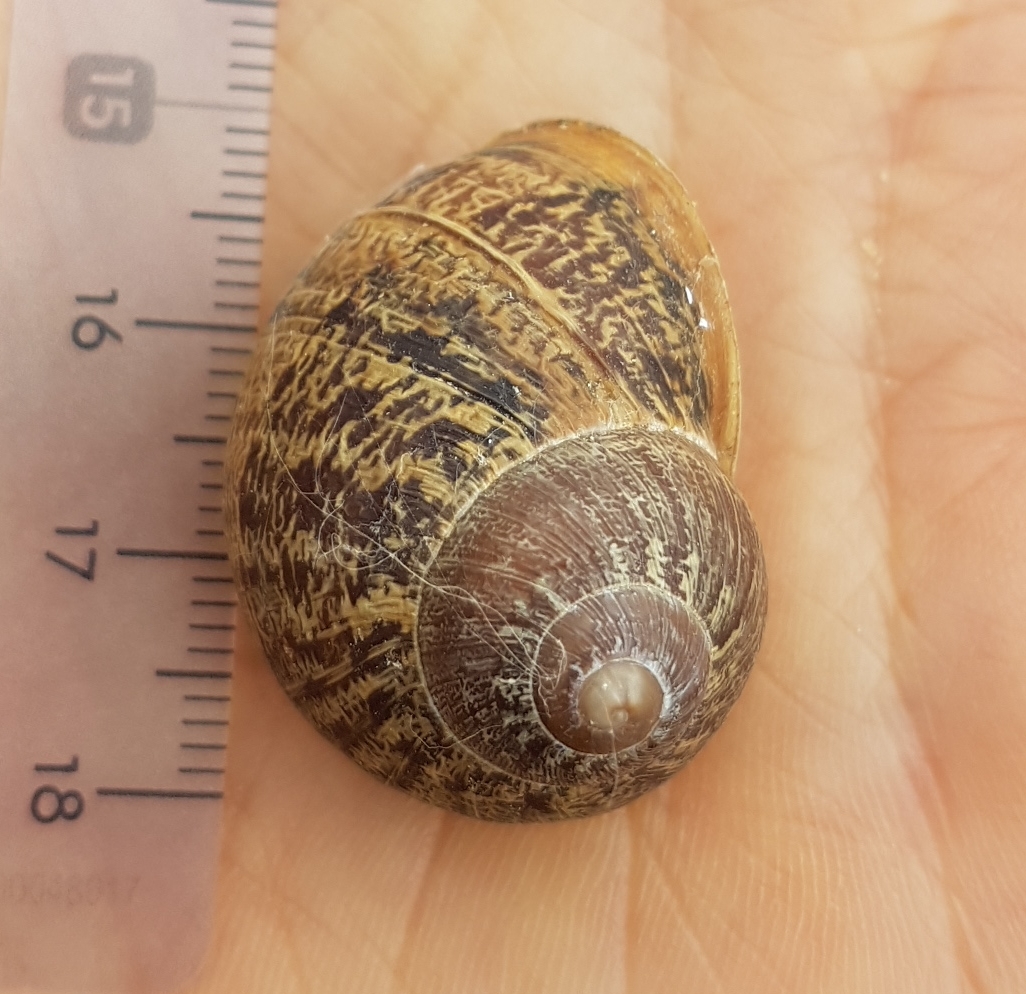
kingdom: Animalia
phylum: Mollusca
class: Gastropoda
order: Stylommatophora
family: Helicidae
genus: Cornu
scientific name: Cornu aspersum
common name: Brown garden snail
